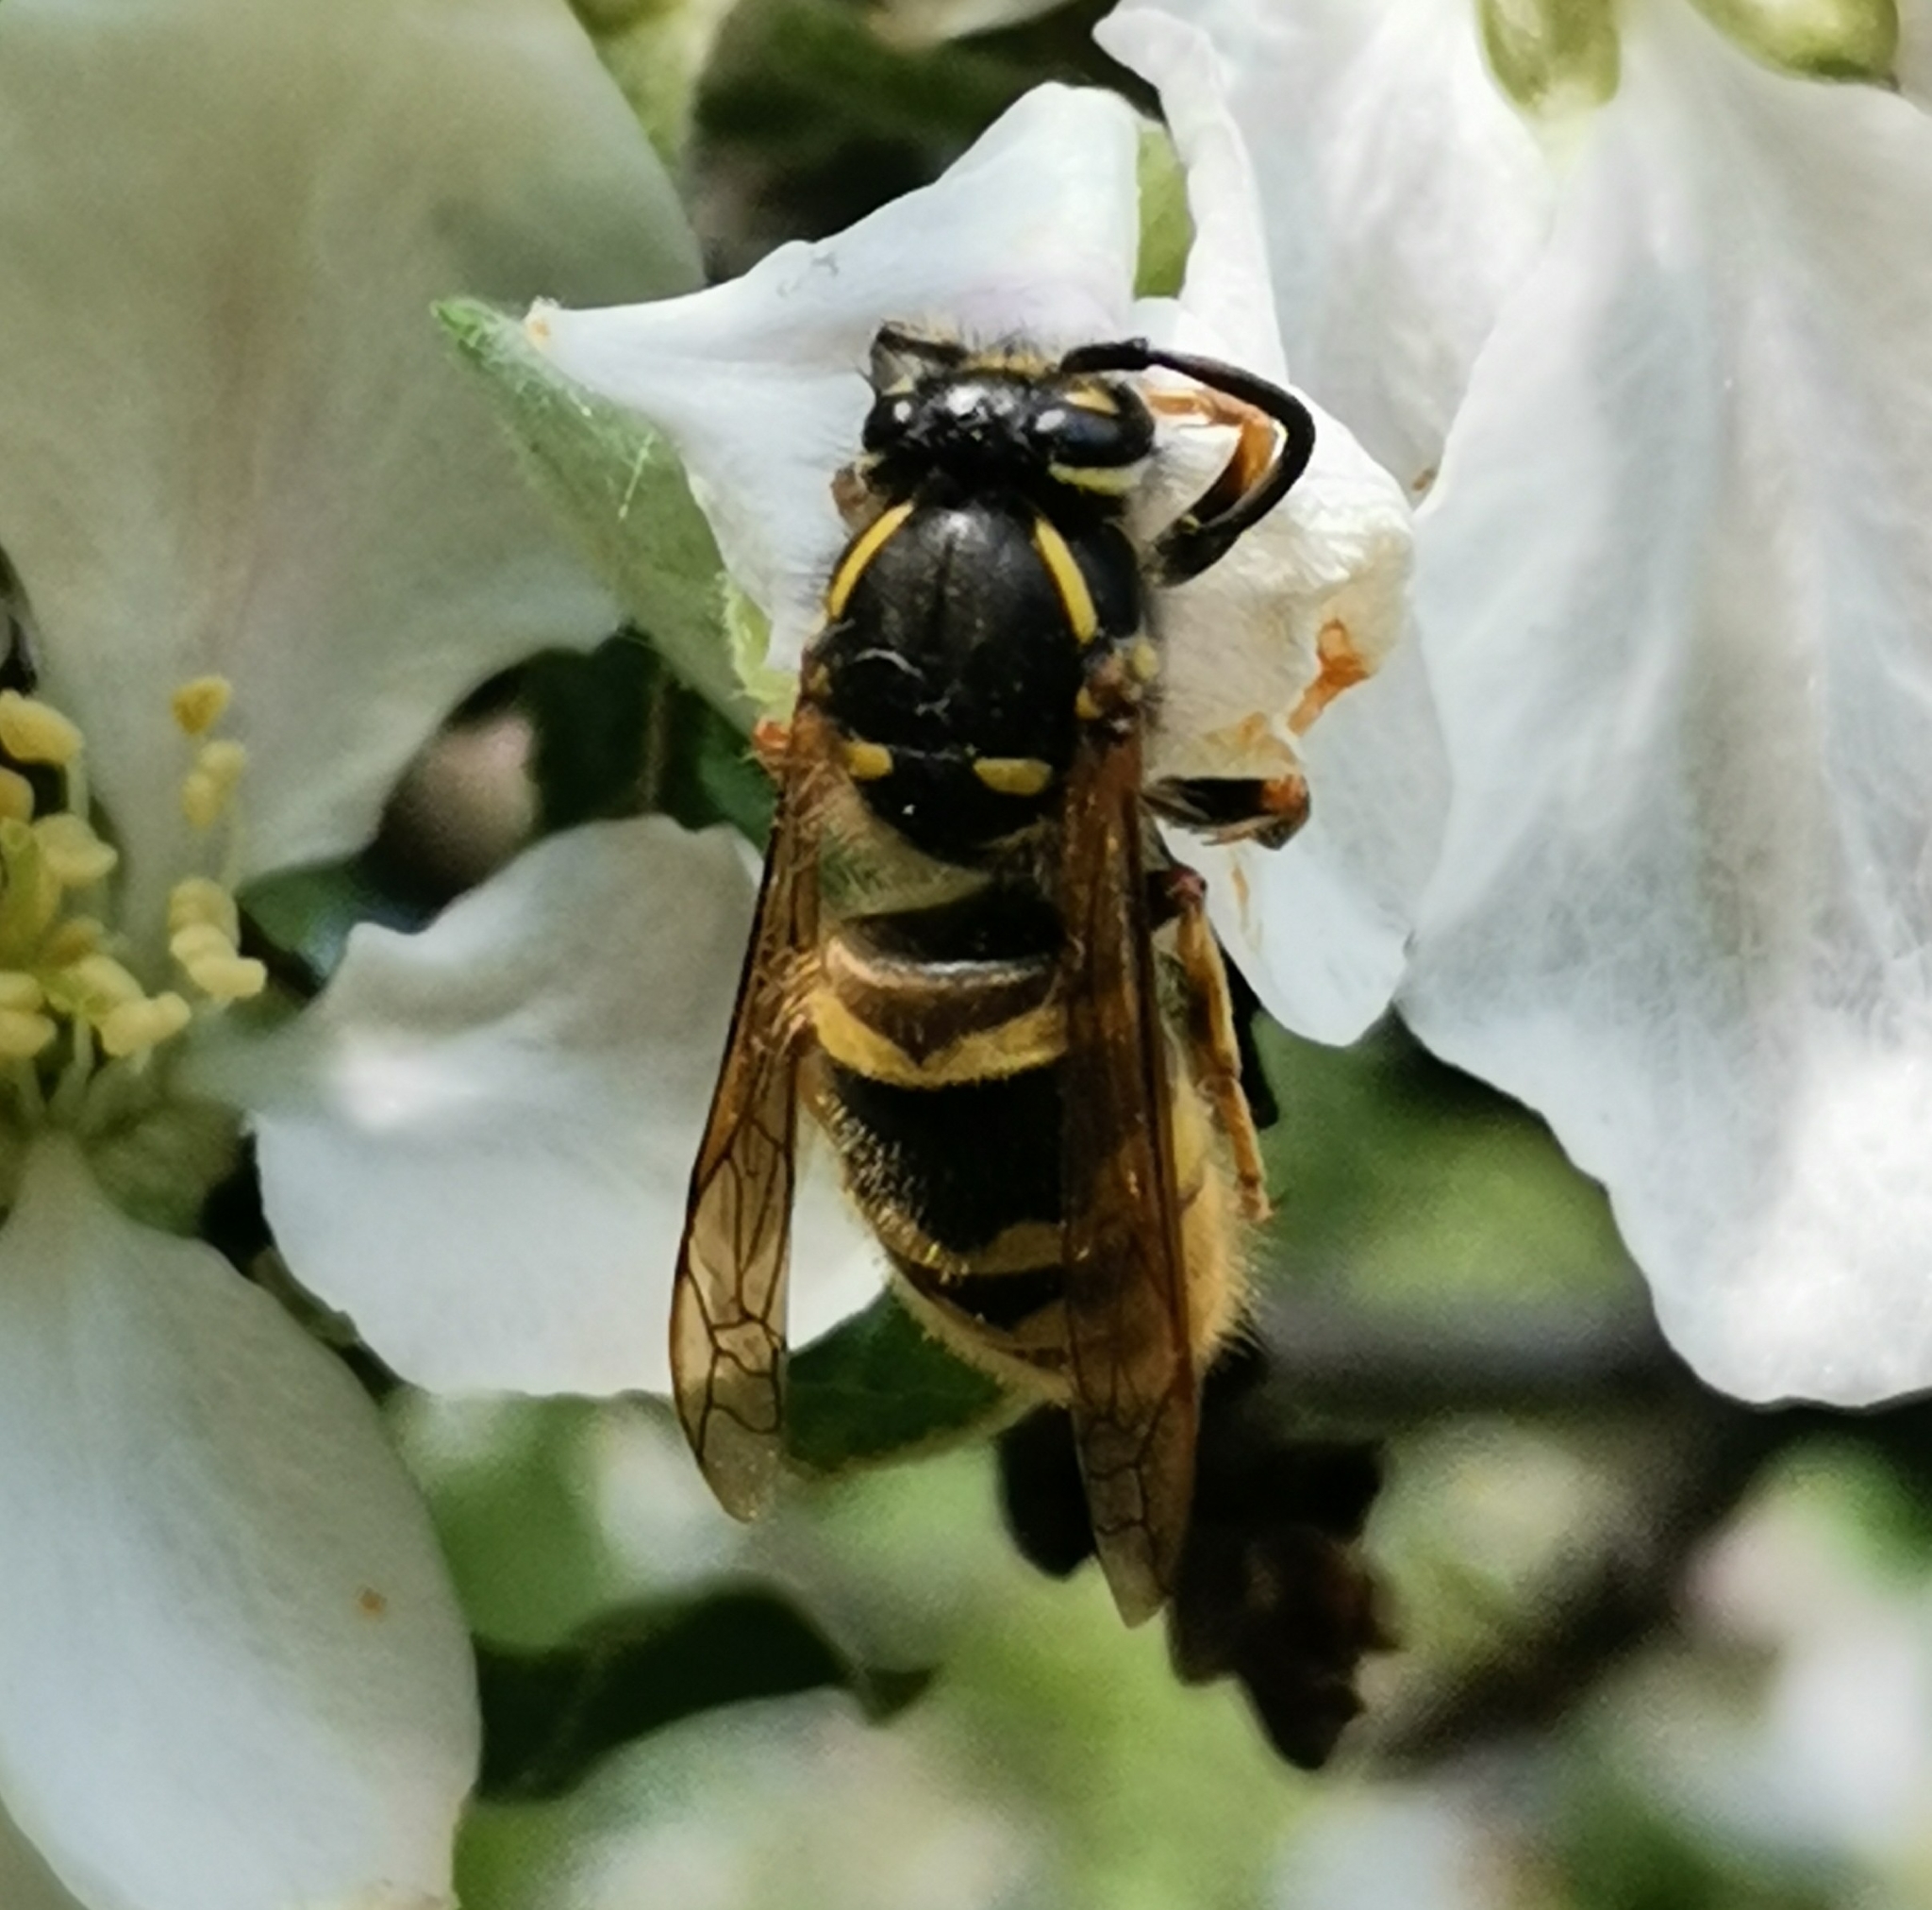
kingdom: Animalia
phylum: Arthropoda
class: Insecta
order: Hymenoptera
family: Vespidae
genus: Vespula
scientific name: Vespula vulgaris
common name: Common wasp
